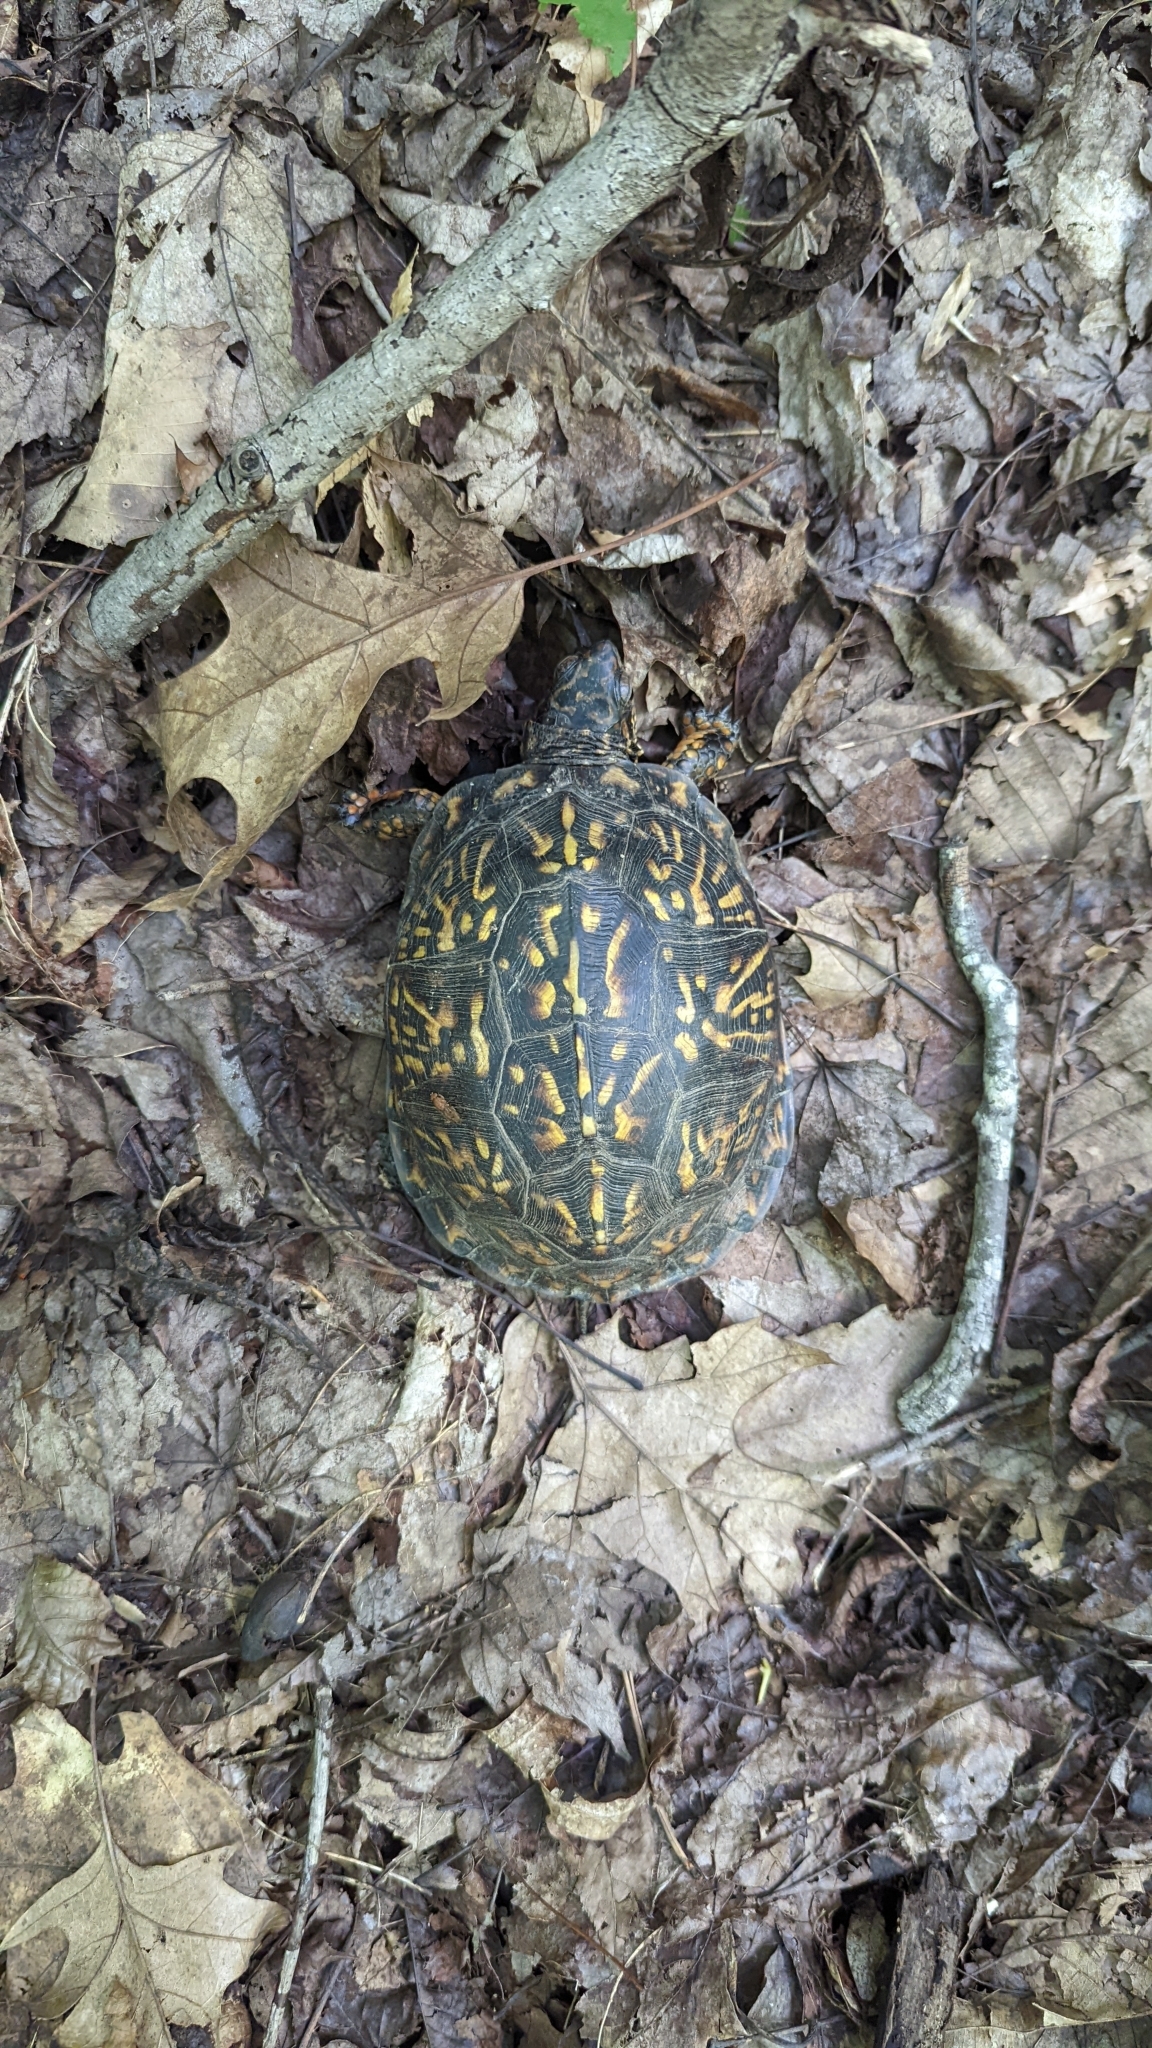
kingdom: Animalia
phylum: Chordata
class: Testudines
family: Emydidae
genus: Terrapene
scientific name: Terrapene carolina
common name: Common box turtle
